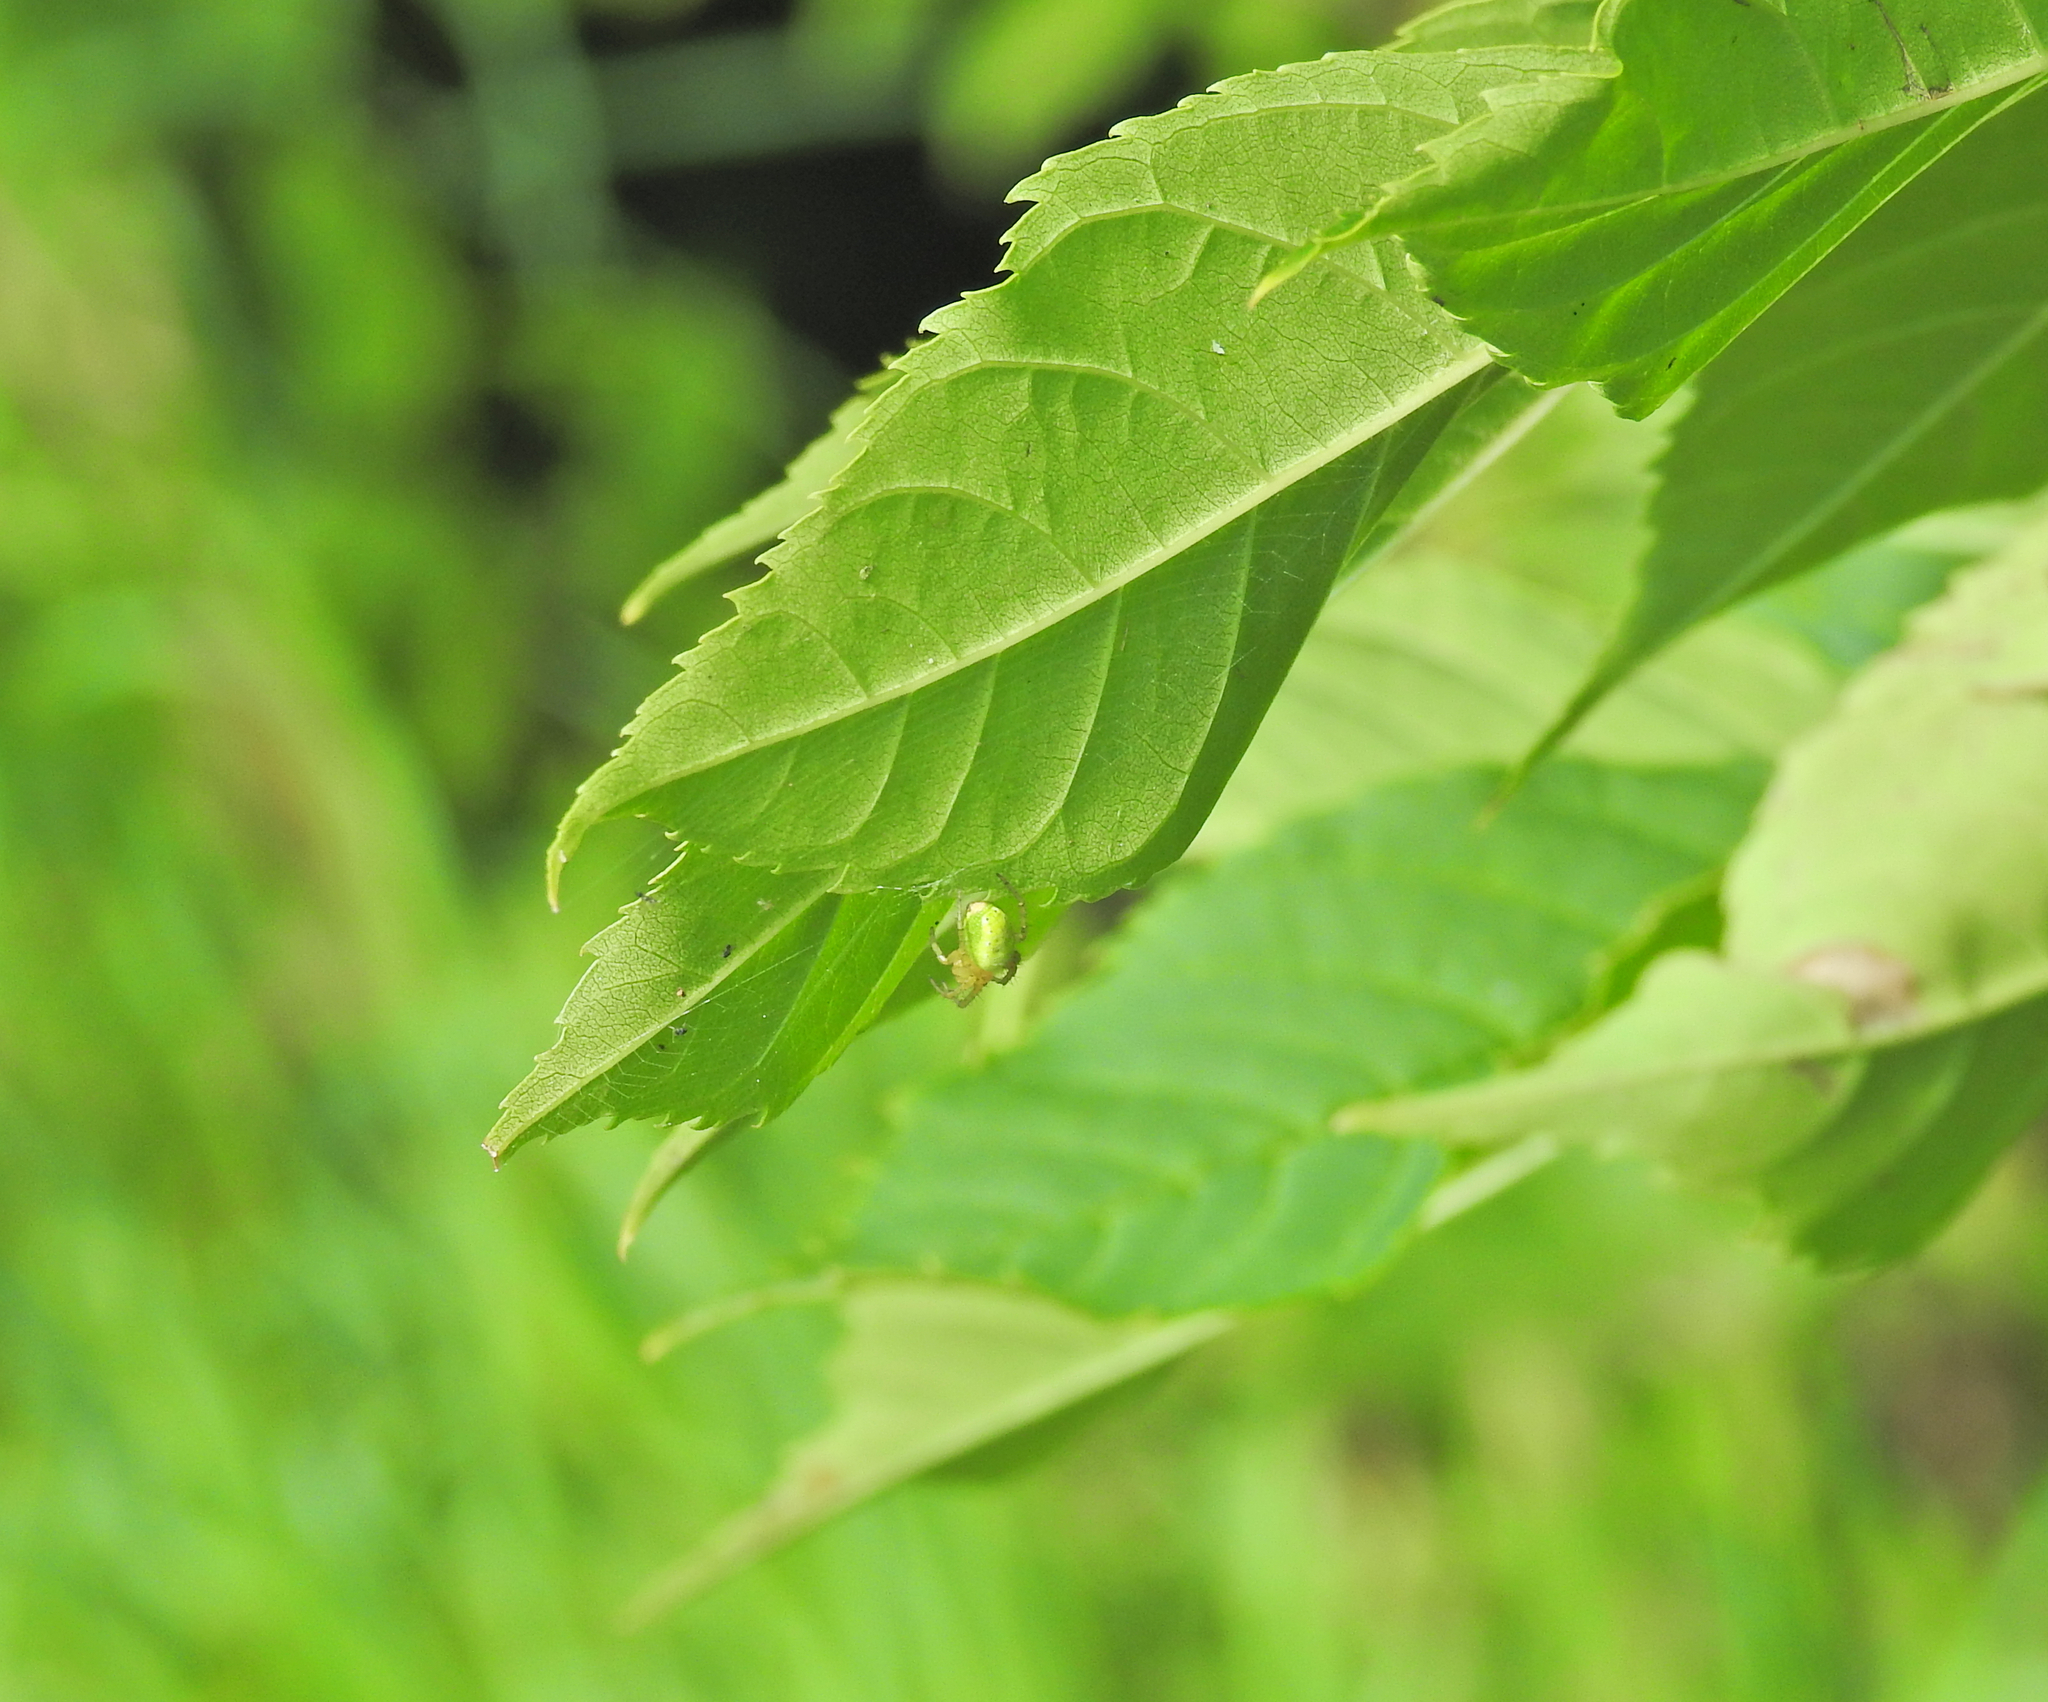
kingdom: Animalia
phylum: Arthropoda
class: Arachnida
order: Araneae
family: Araneidae
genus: Araniella
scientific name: Araniella
